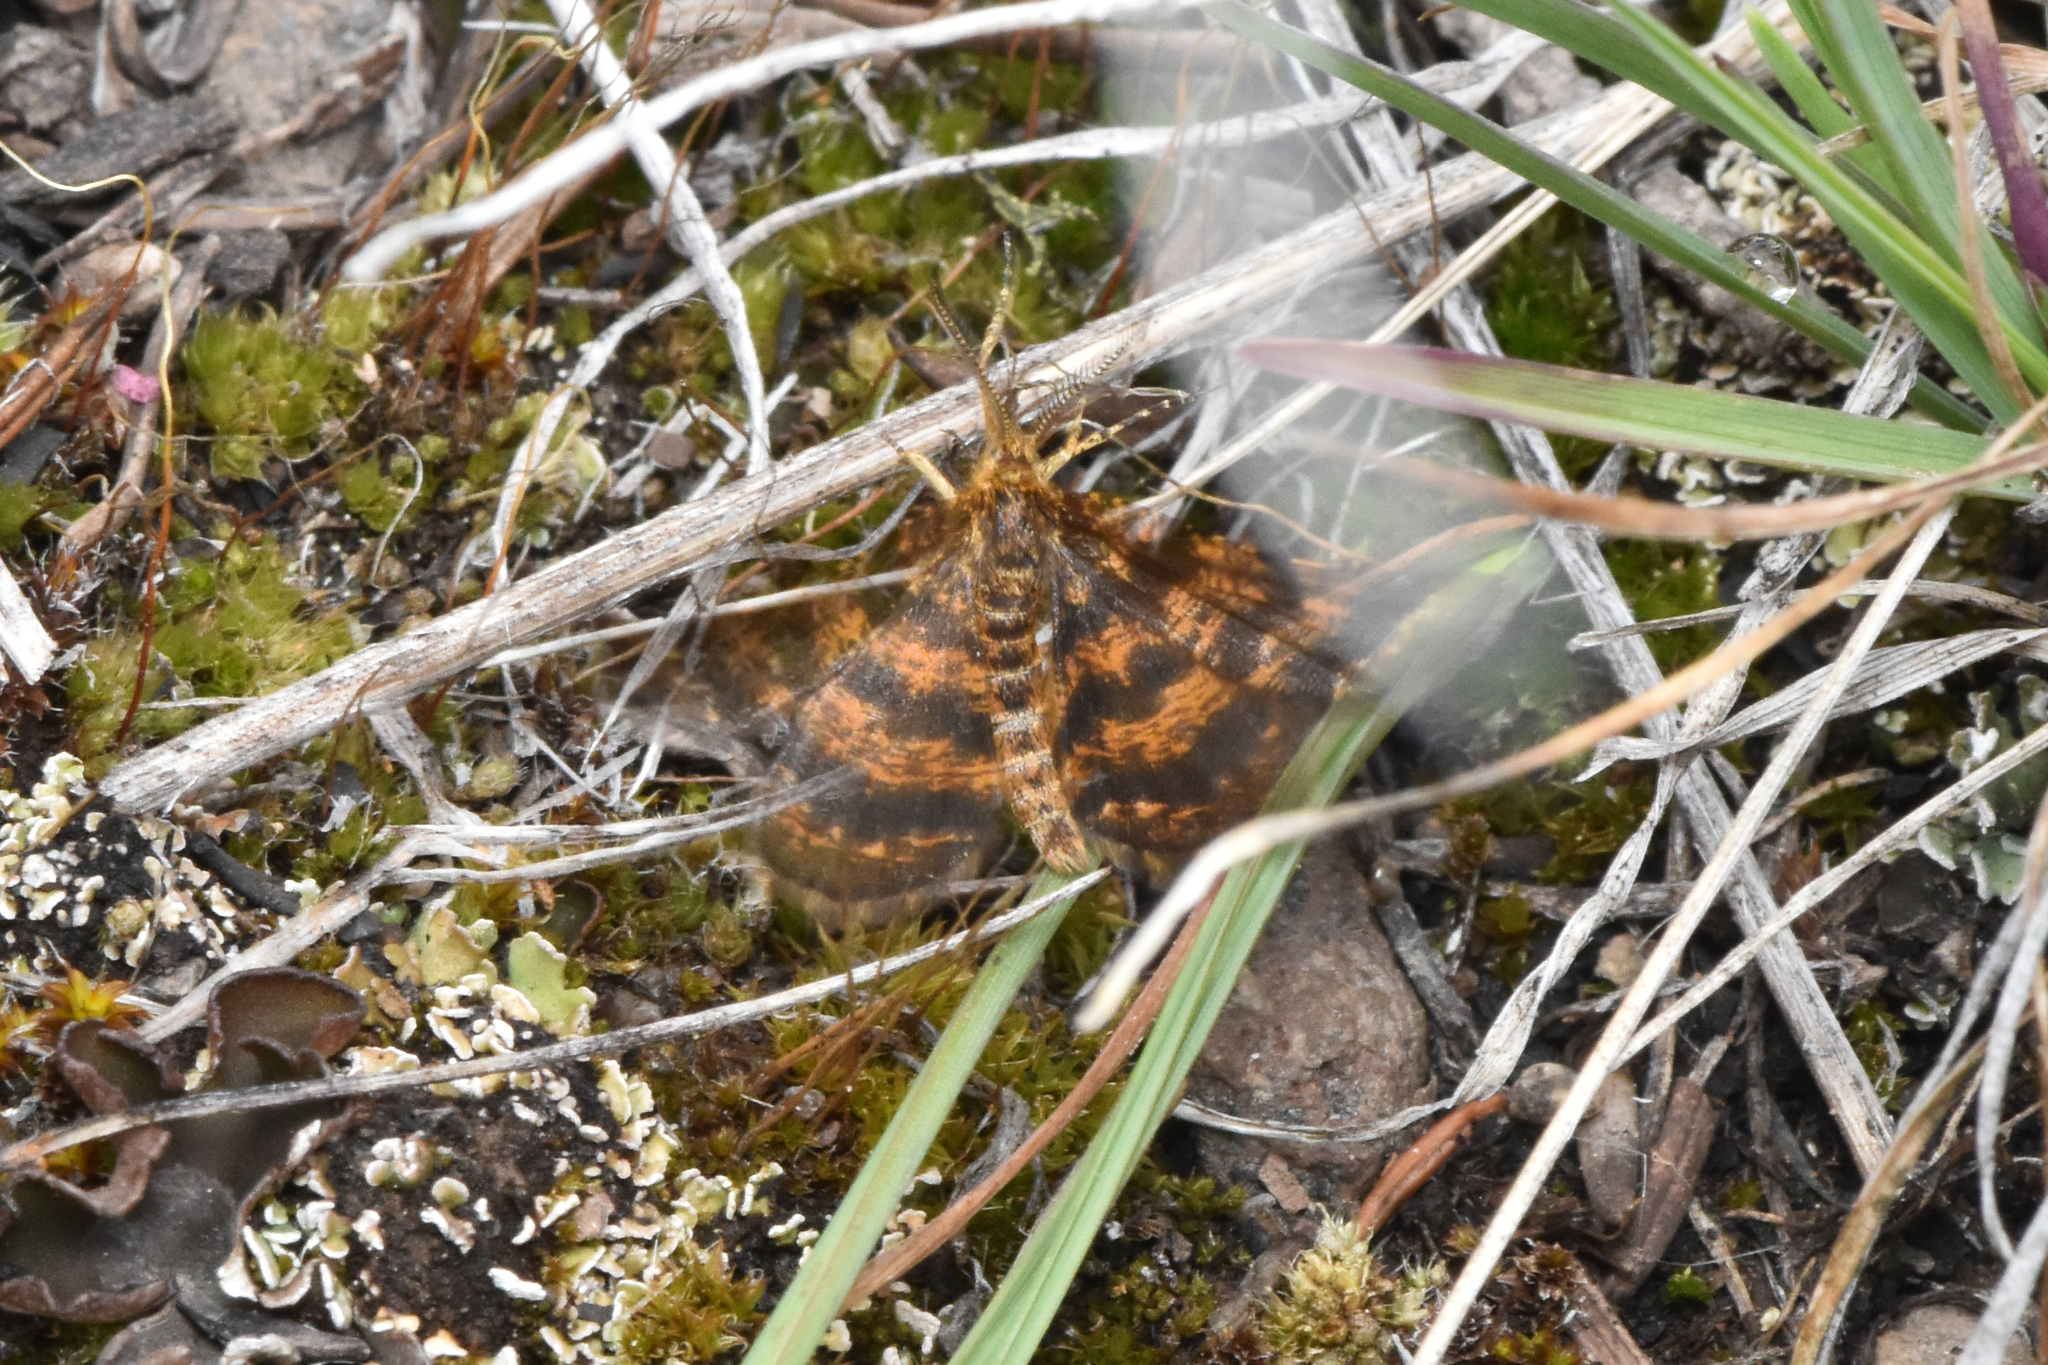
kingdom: Animalia
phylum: Arthropoda
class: Insecta
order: Lepidoptera
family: Geometridae
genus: Macaria
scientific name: Macaria truncataria
